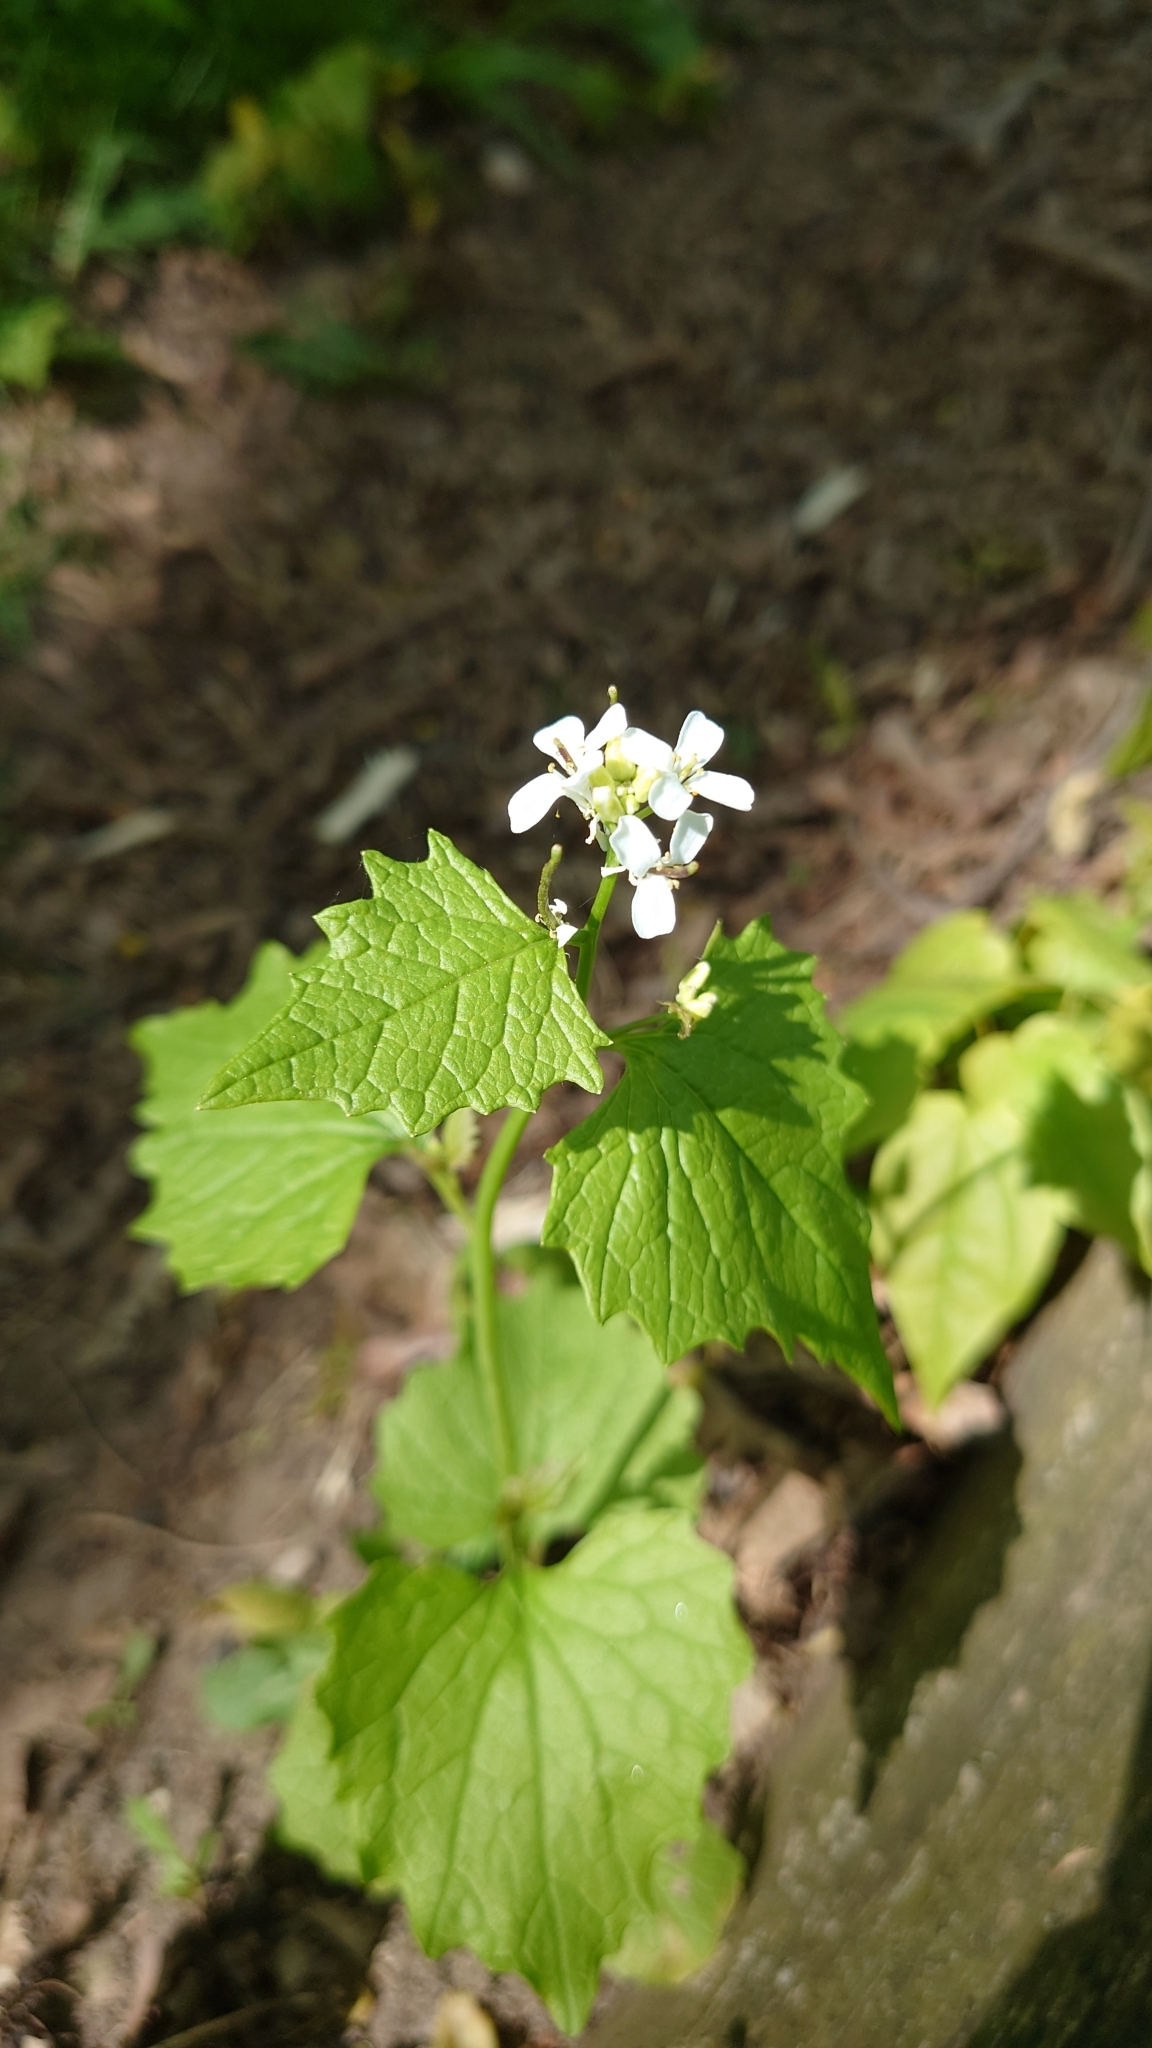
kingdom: Plantae
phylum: Tracheophyta
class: Magnoliopsida
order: Brassicales
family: Brassicaceae
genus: Alliaria
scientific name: Alliaria petiolata
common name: Garlic mustard
